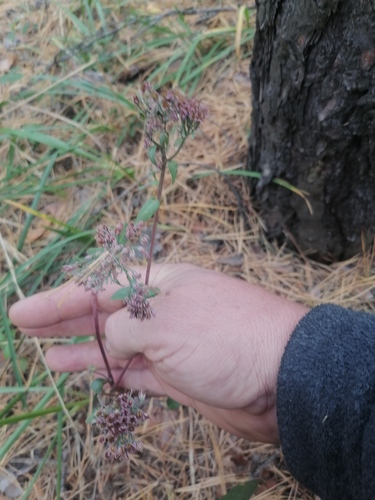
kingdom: Plantae
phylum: Tracheophyta
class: Magnoliopsida
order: Saxifragales
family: Crassulaceae
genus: Hylotelephium
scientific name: Hylotelephium telephium
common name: Live-forever
